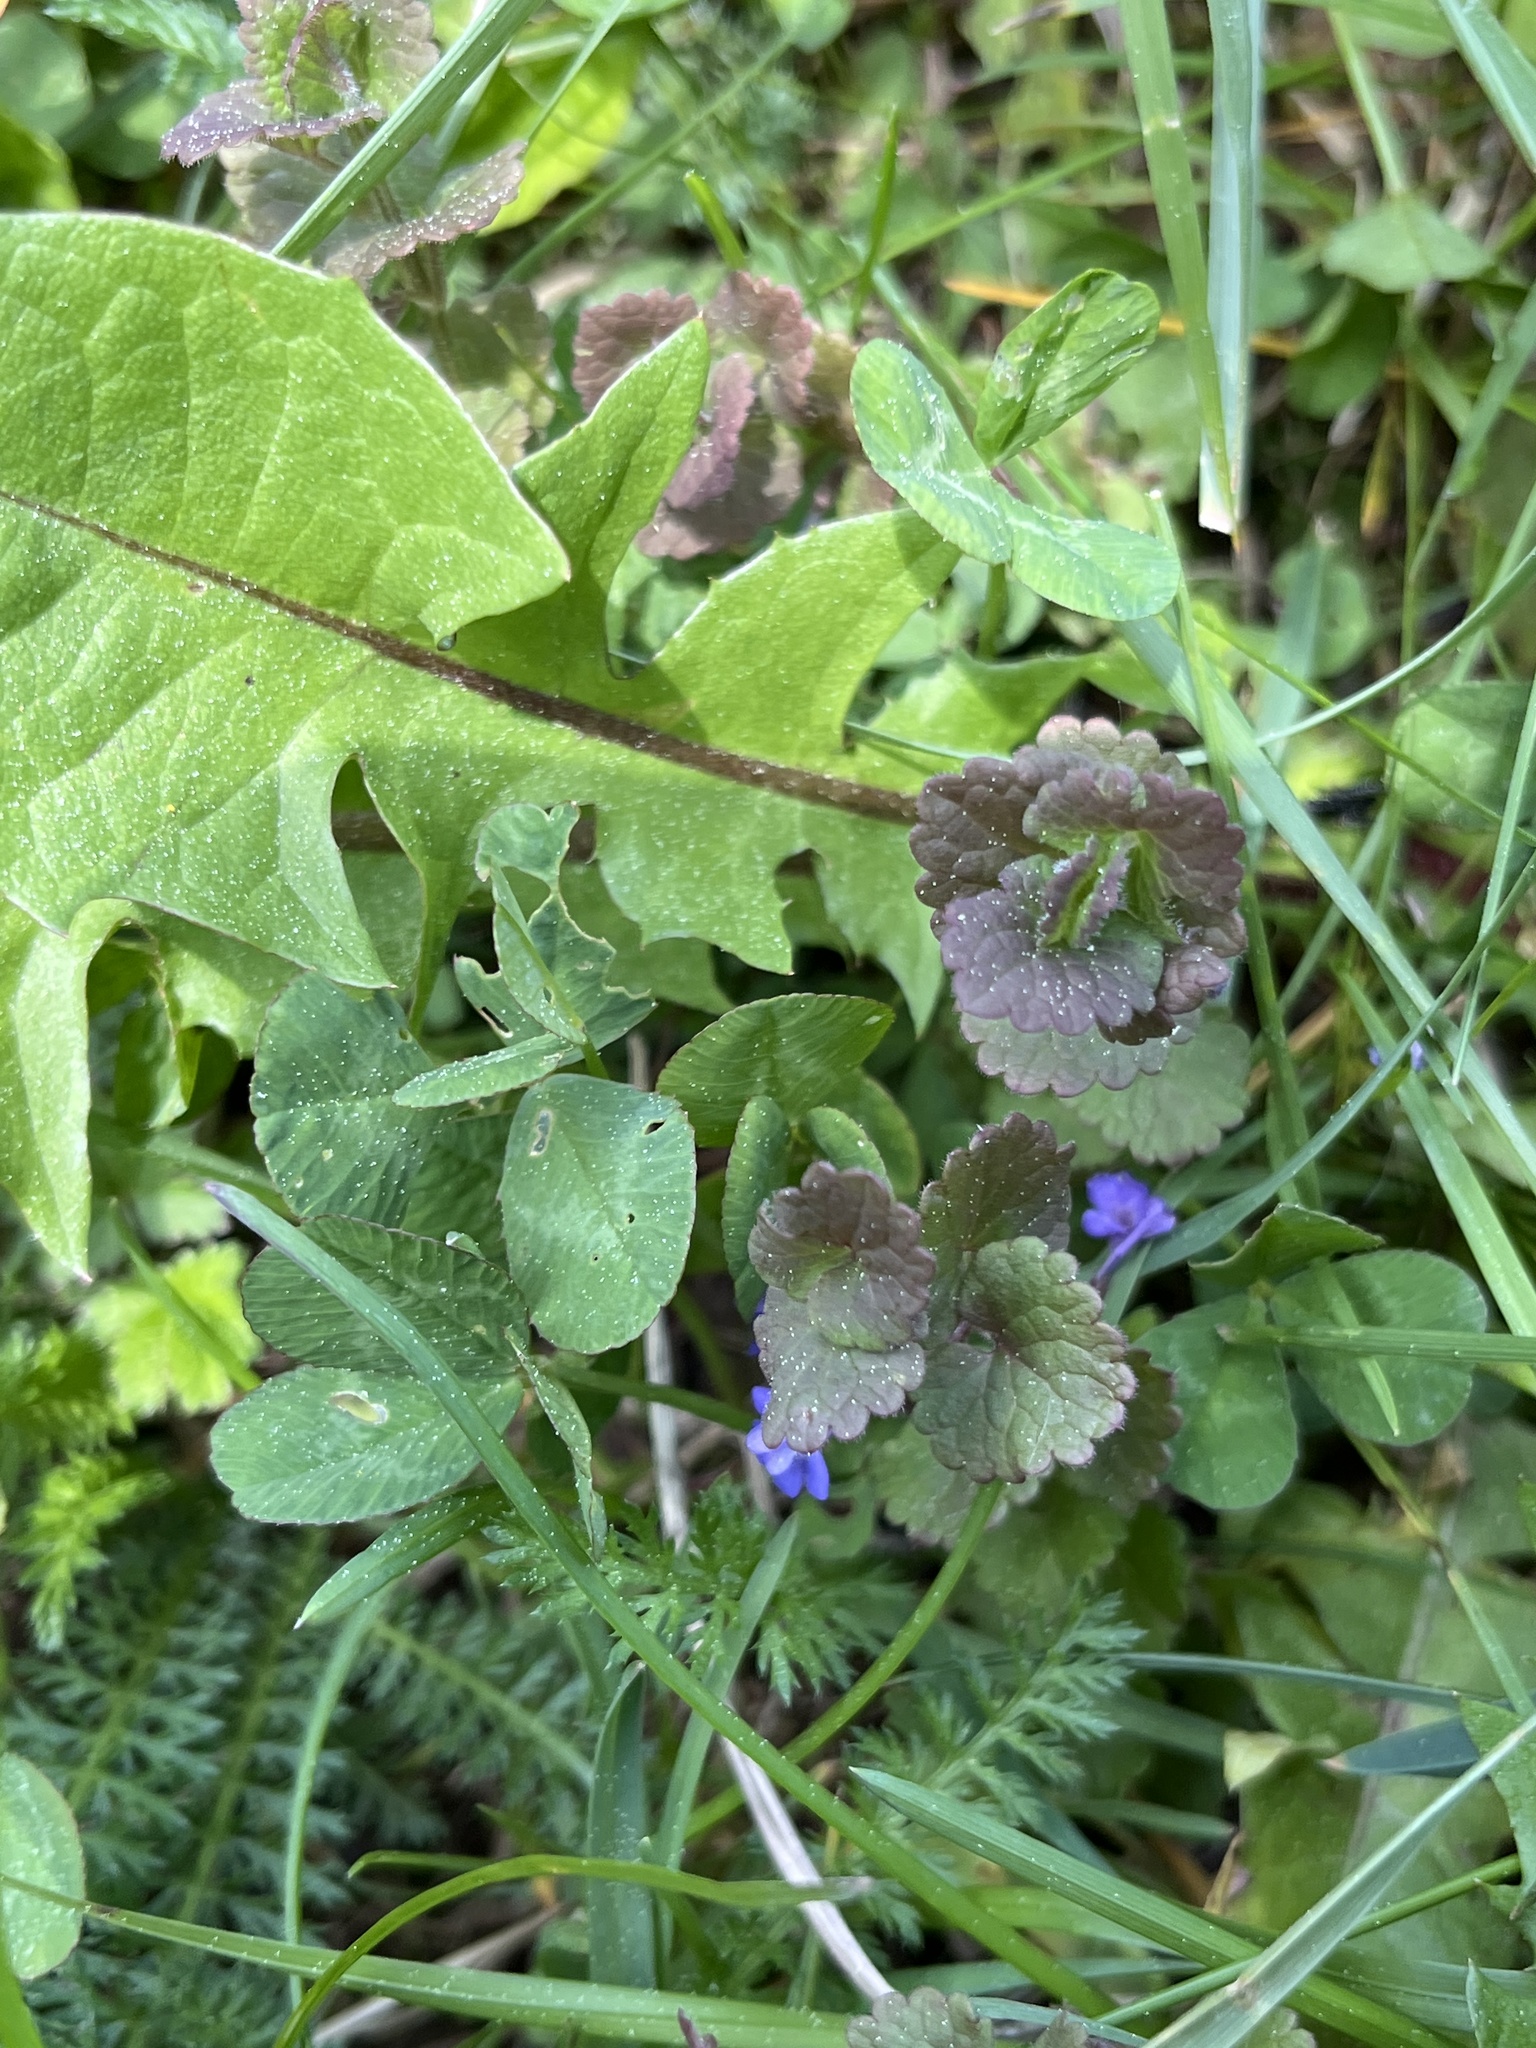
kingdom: Plantae
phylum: Tracheophyta
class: Magnoliopsida
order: Lamiales
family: Lamiaceae
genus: Glechoma
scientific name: Glechoma hederacea
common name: Ground ivy
